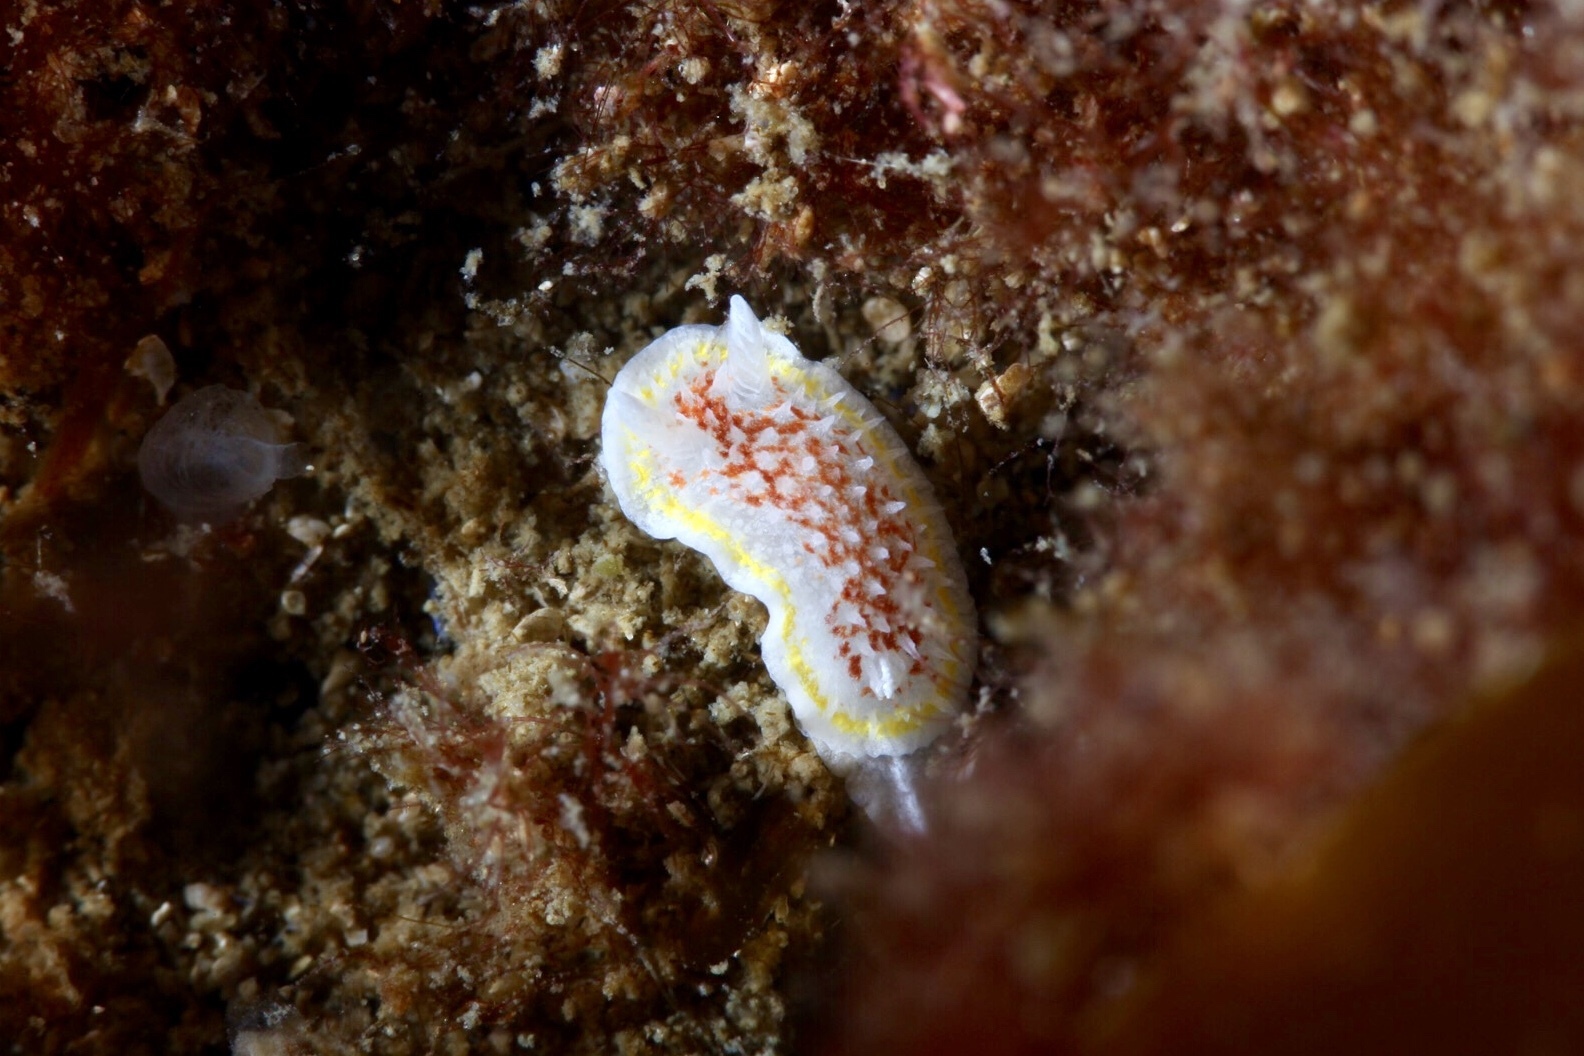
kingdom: Animalia
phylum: Mollusca
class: Gastropoda
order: Nudibranchia
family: Calycidorididae
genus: Diaphorodoris
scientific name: Diaphorodoris luteocincta
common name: Fried egg nudibranch
